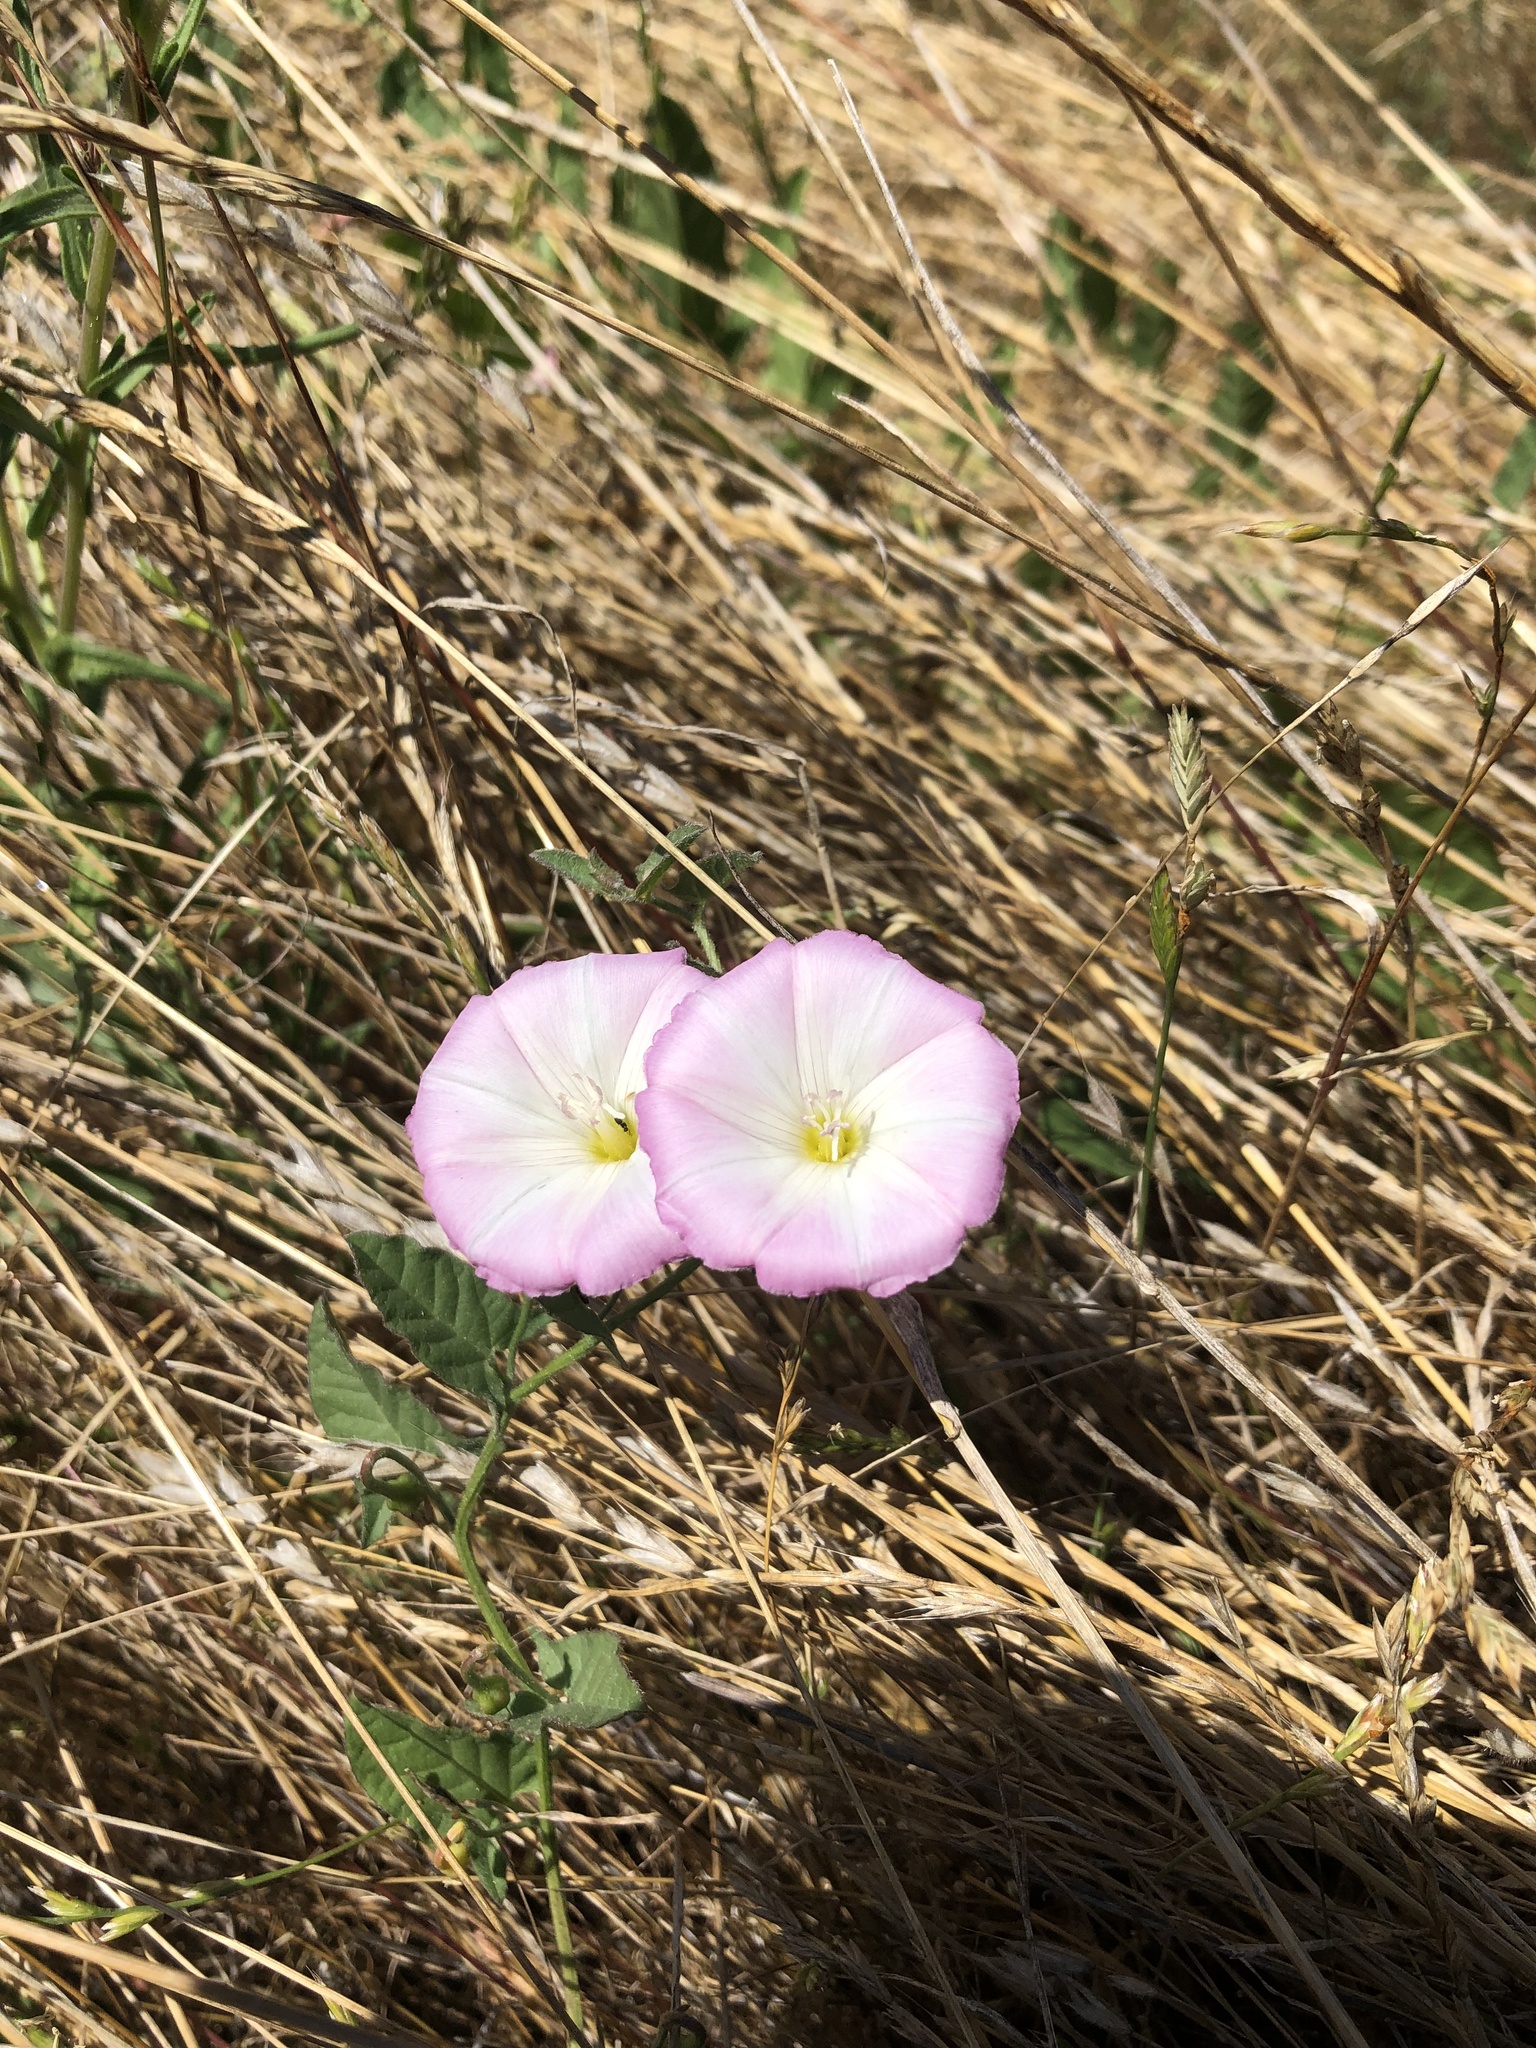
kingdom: Plantae
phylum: Tracheophyta
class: Magnoliopsida
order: Solanales
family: Convolvulaceae
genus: Convolvulus
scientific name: Convolvulus arvensis
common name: Field bindweed
